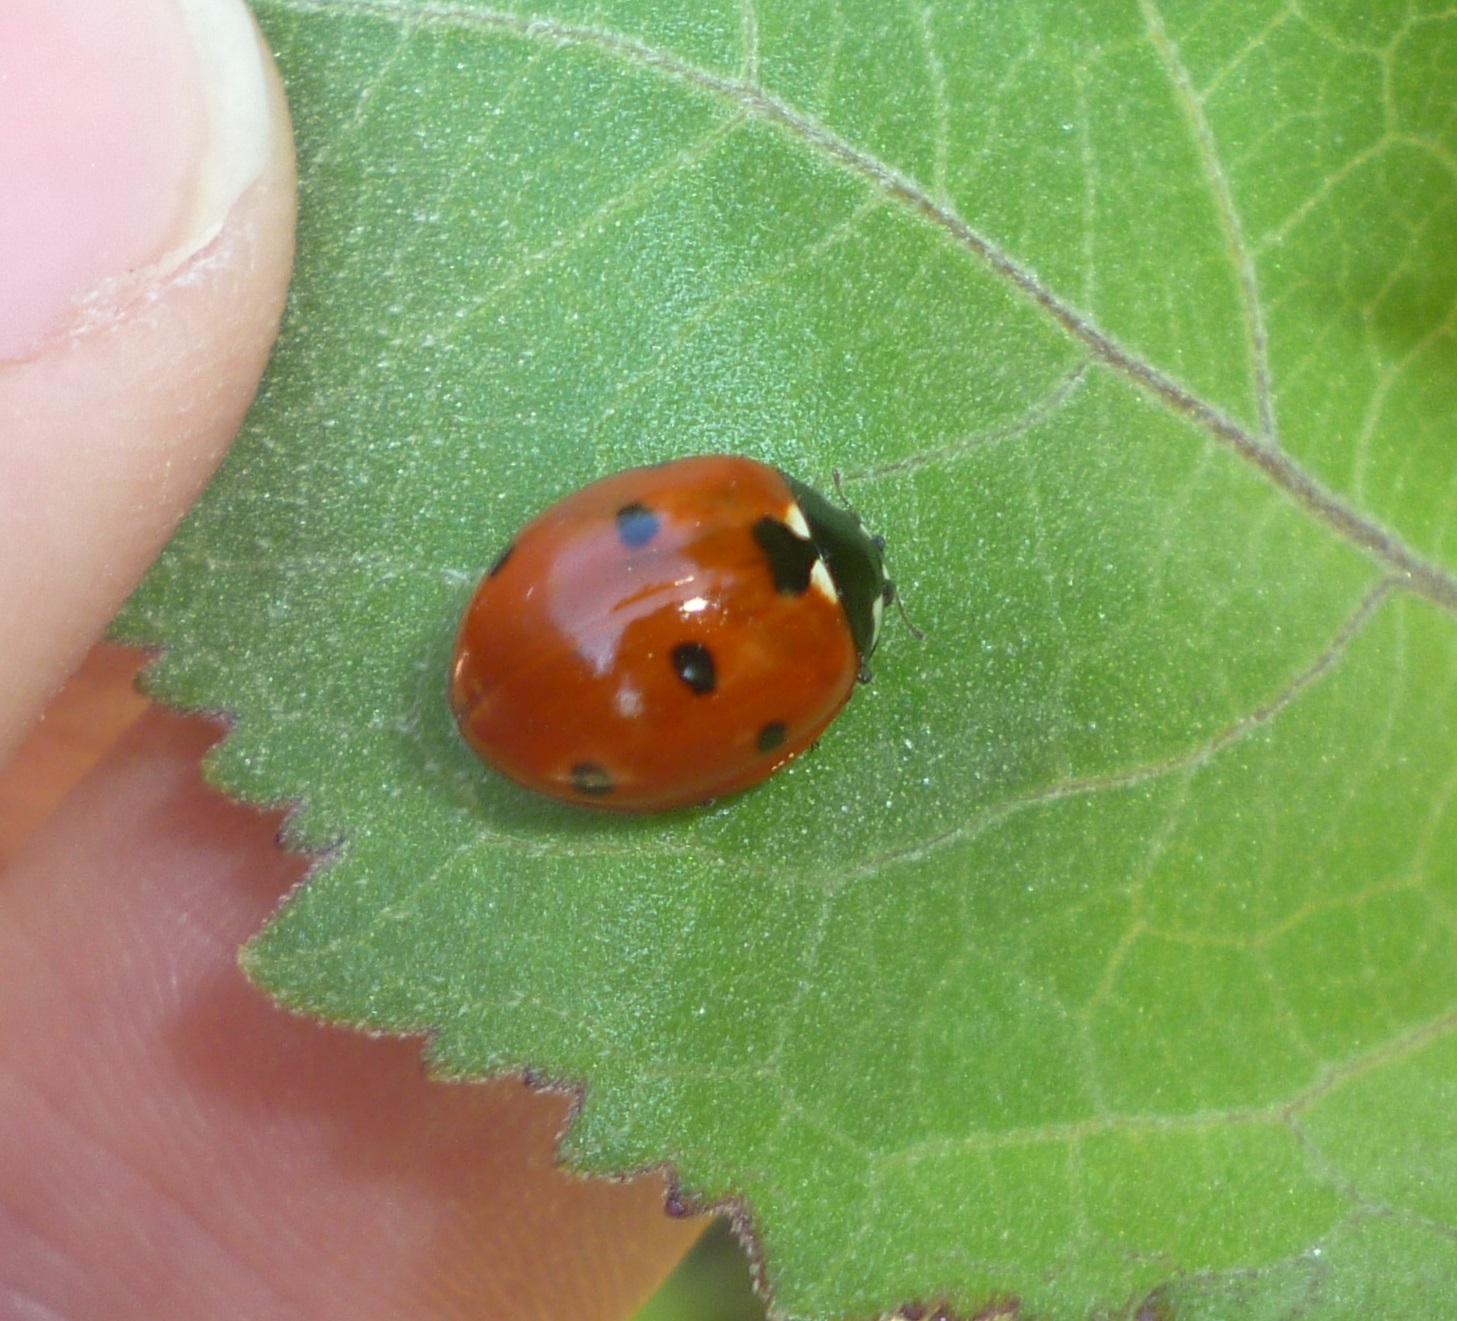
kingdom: Animalia
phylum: Arthropoda
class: Insecta
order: Coleoptera
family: Coccinellidae
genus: Coccinella
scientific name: Coccinella septempunctata
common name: Sevenspotted lady beetle
